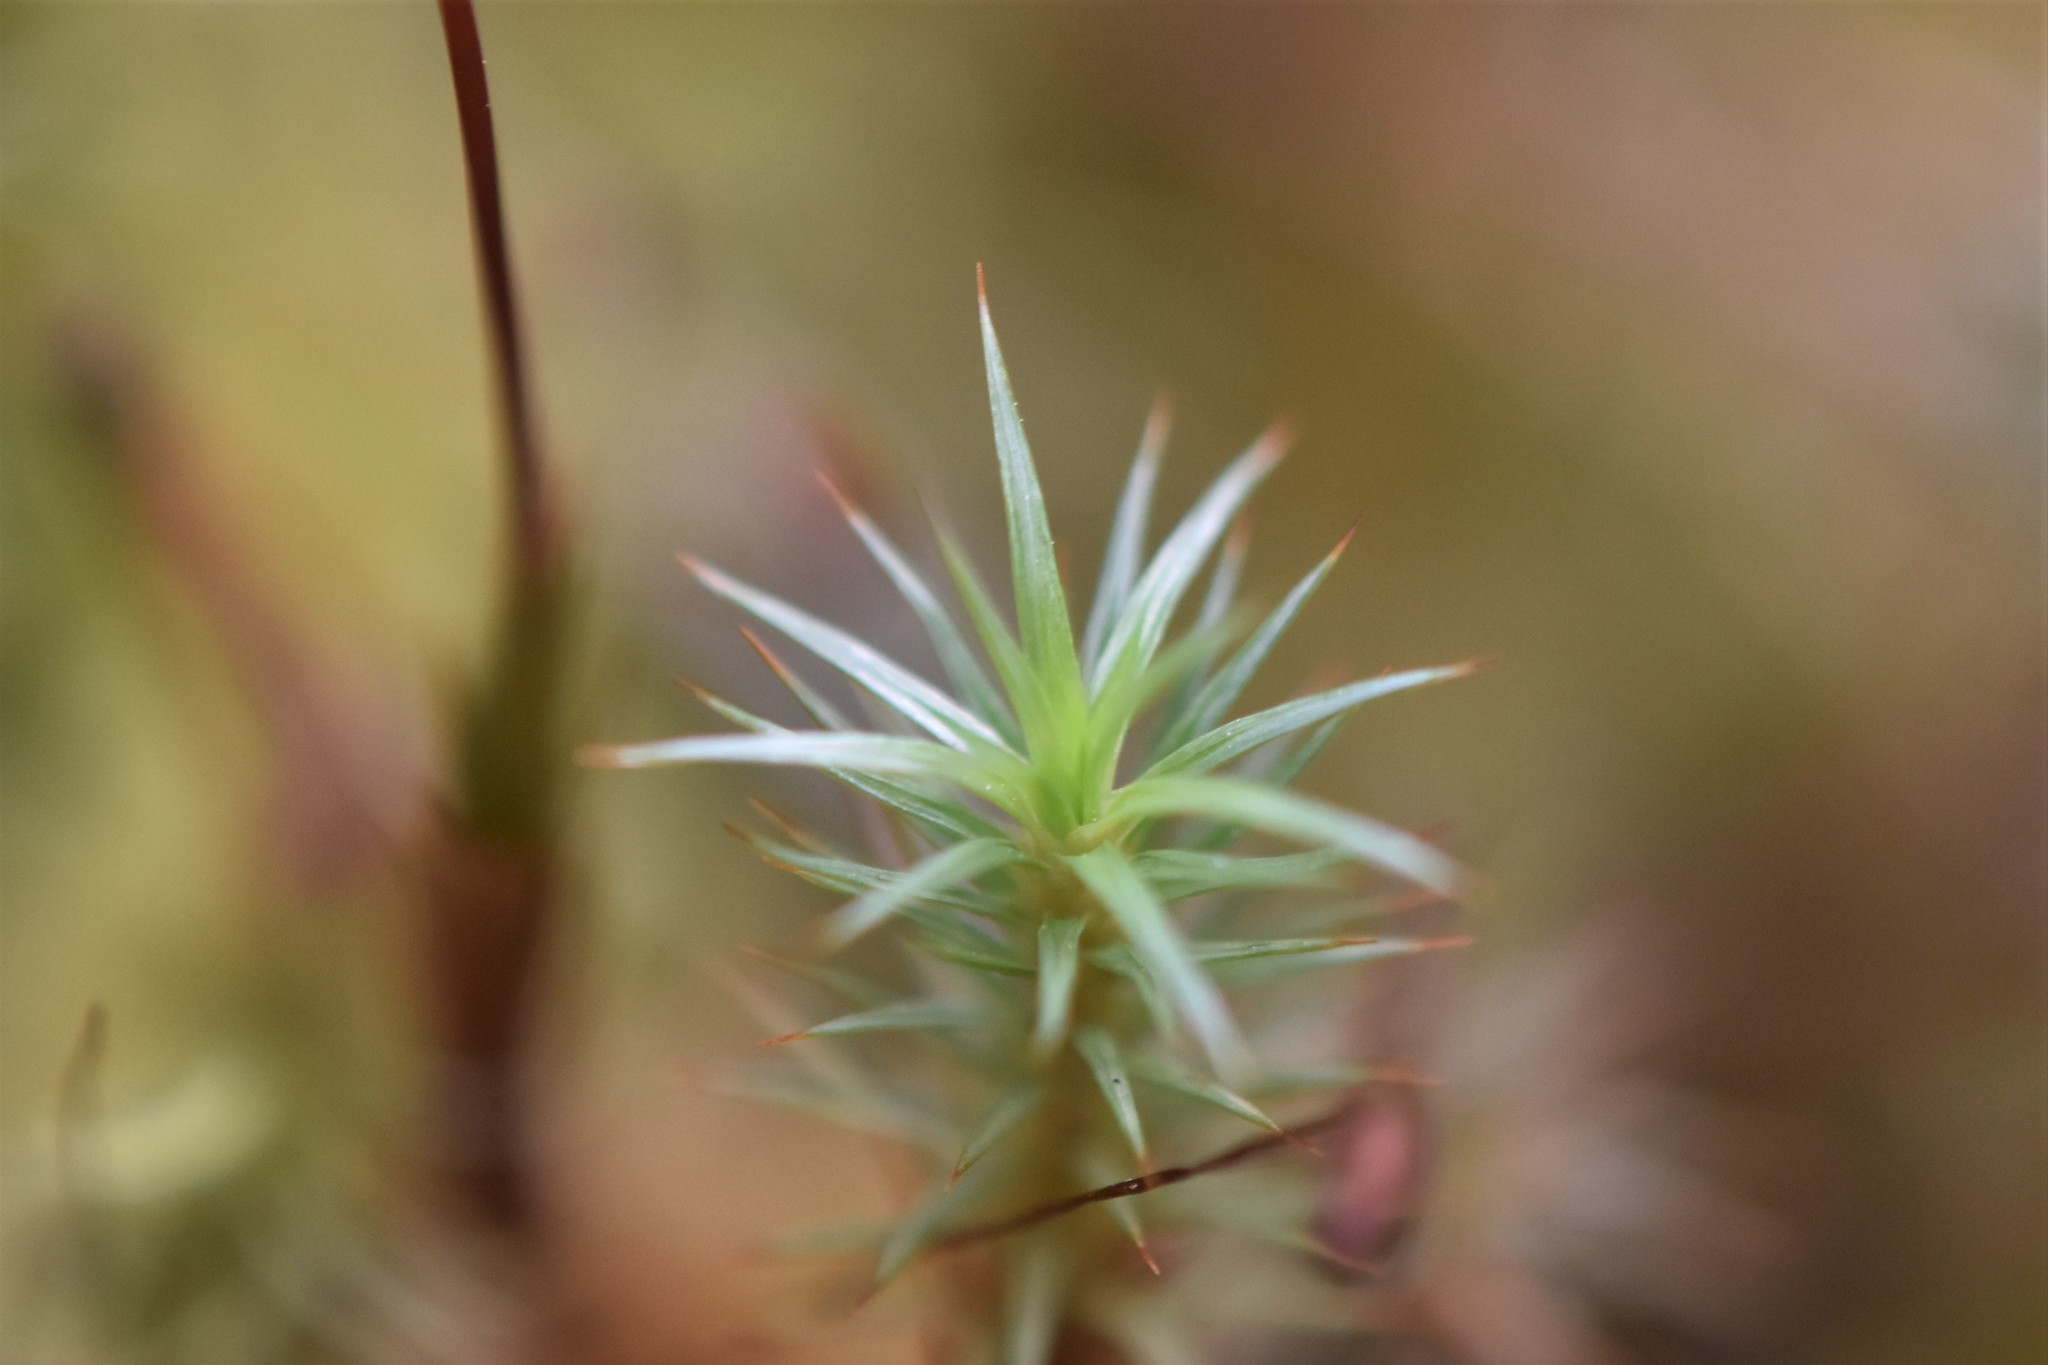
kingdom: Plantae
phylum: Bryophyta
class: Polytrichopsida
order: Polytrichales
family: Polytrichaceae
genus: Polytrichum
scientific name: Polytrichum juniperinum
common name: Juniper haircap moss
